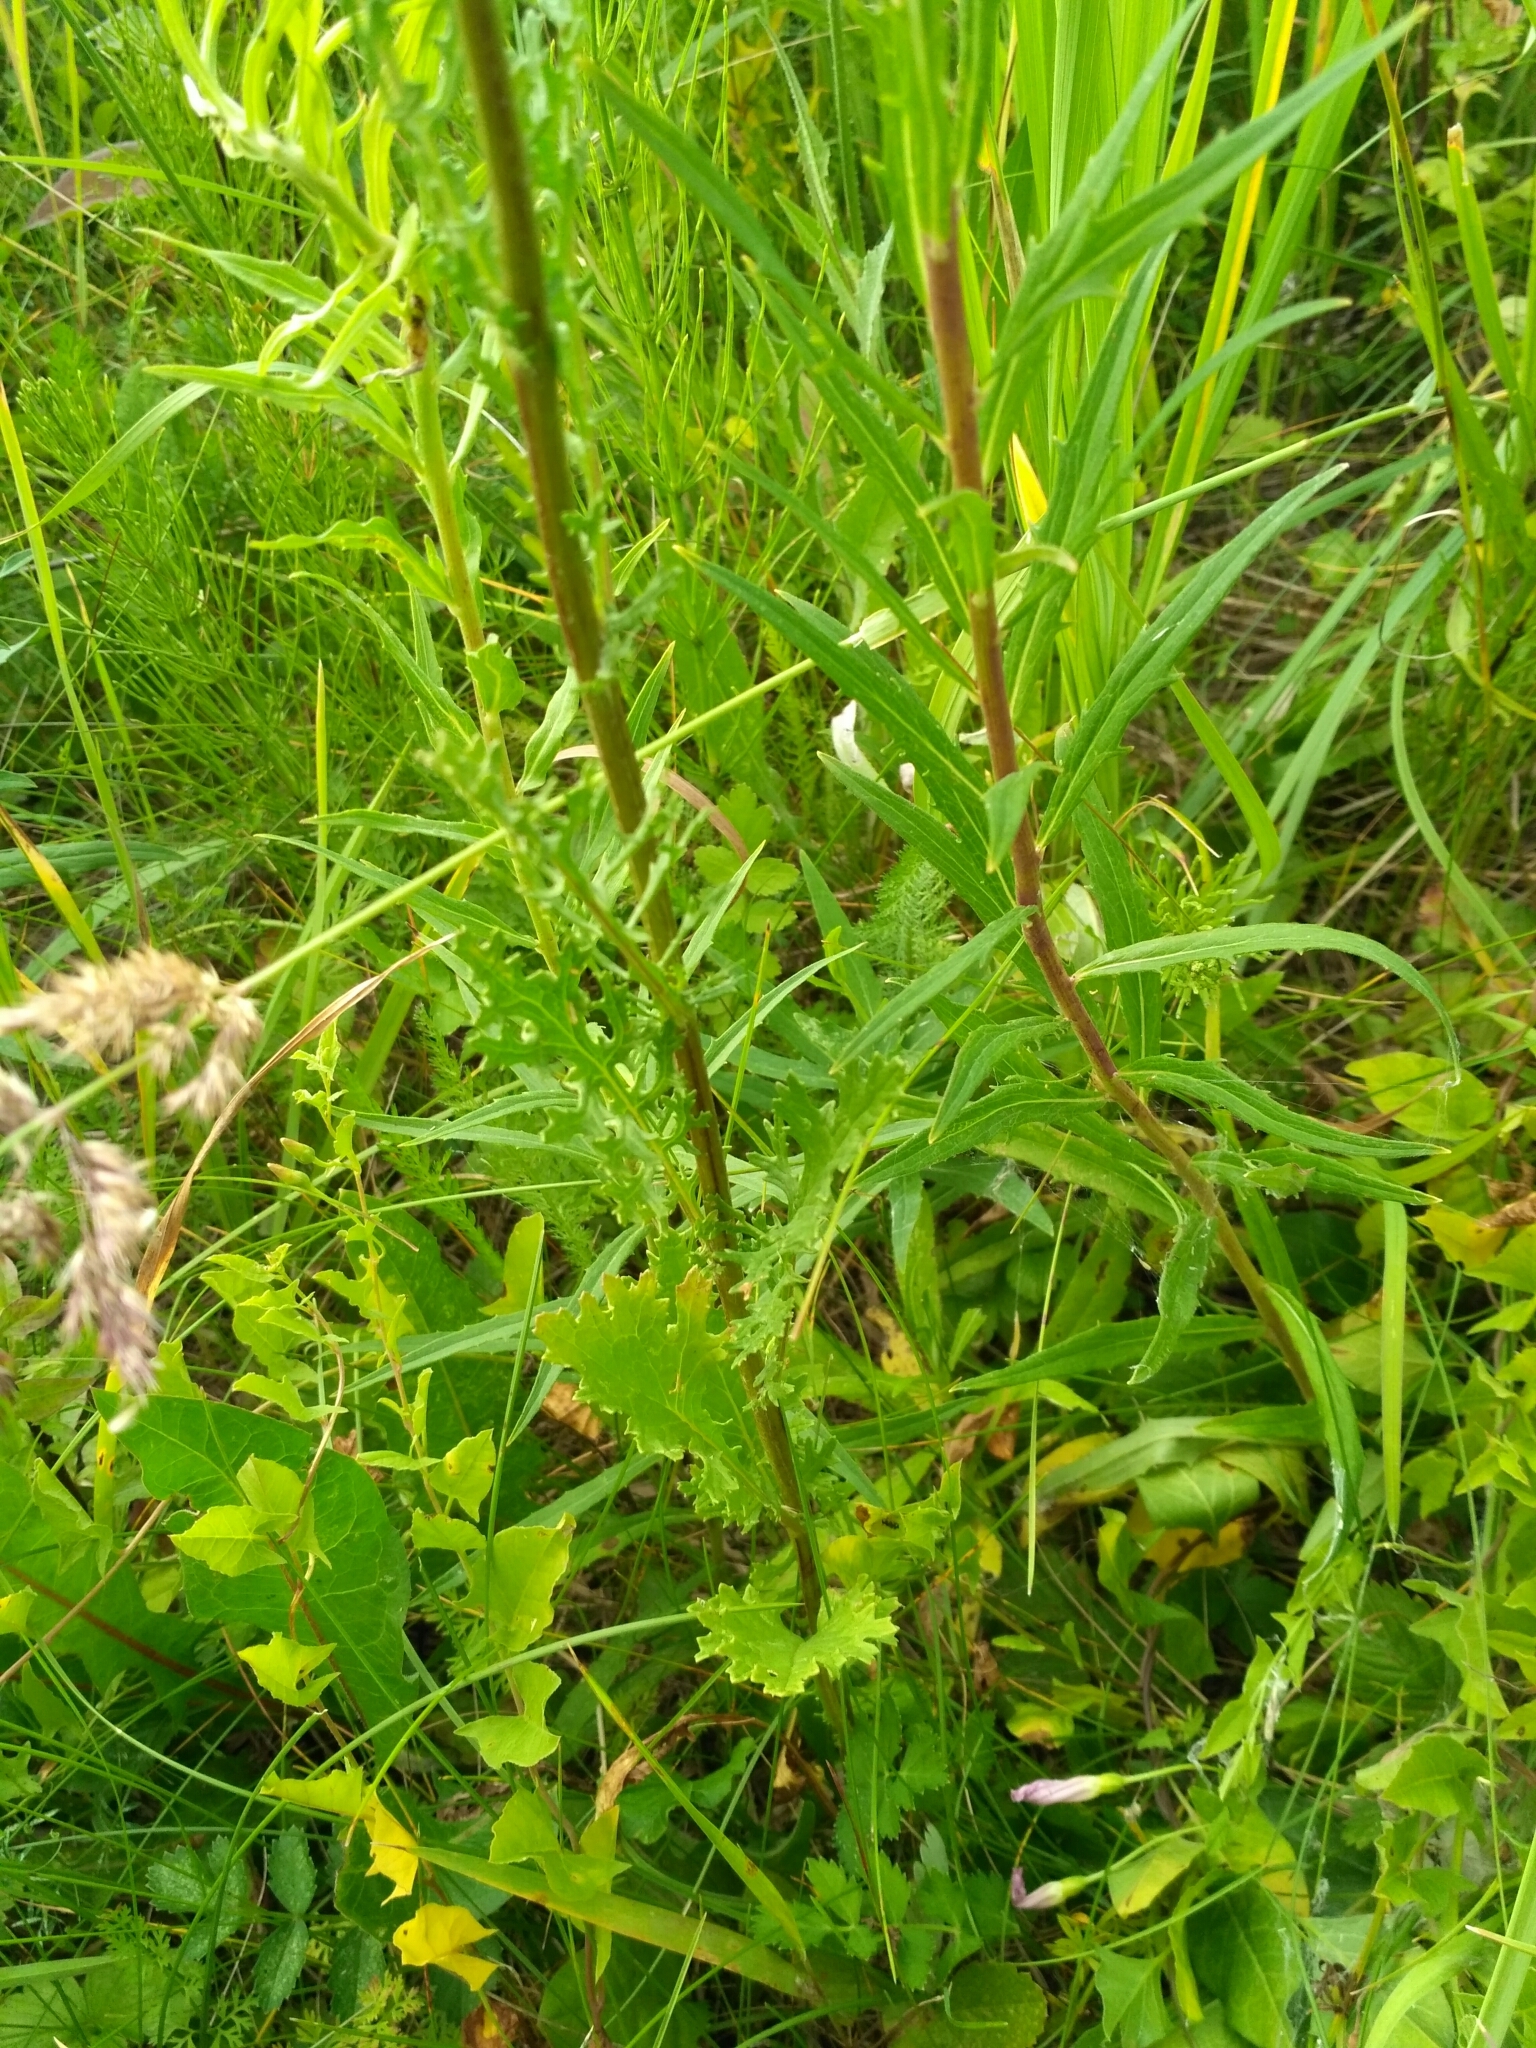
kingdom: Plantae
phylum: Tracheophyta
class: Magnoliopsida
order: Asterales
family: Asteraceae
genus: Jacobaea
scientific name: Jacobaea vulgaris
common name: Stinking willie
